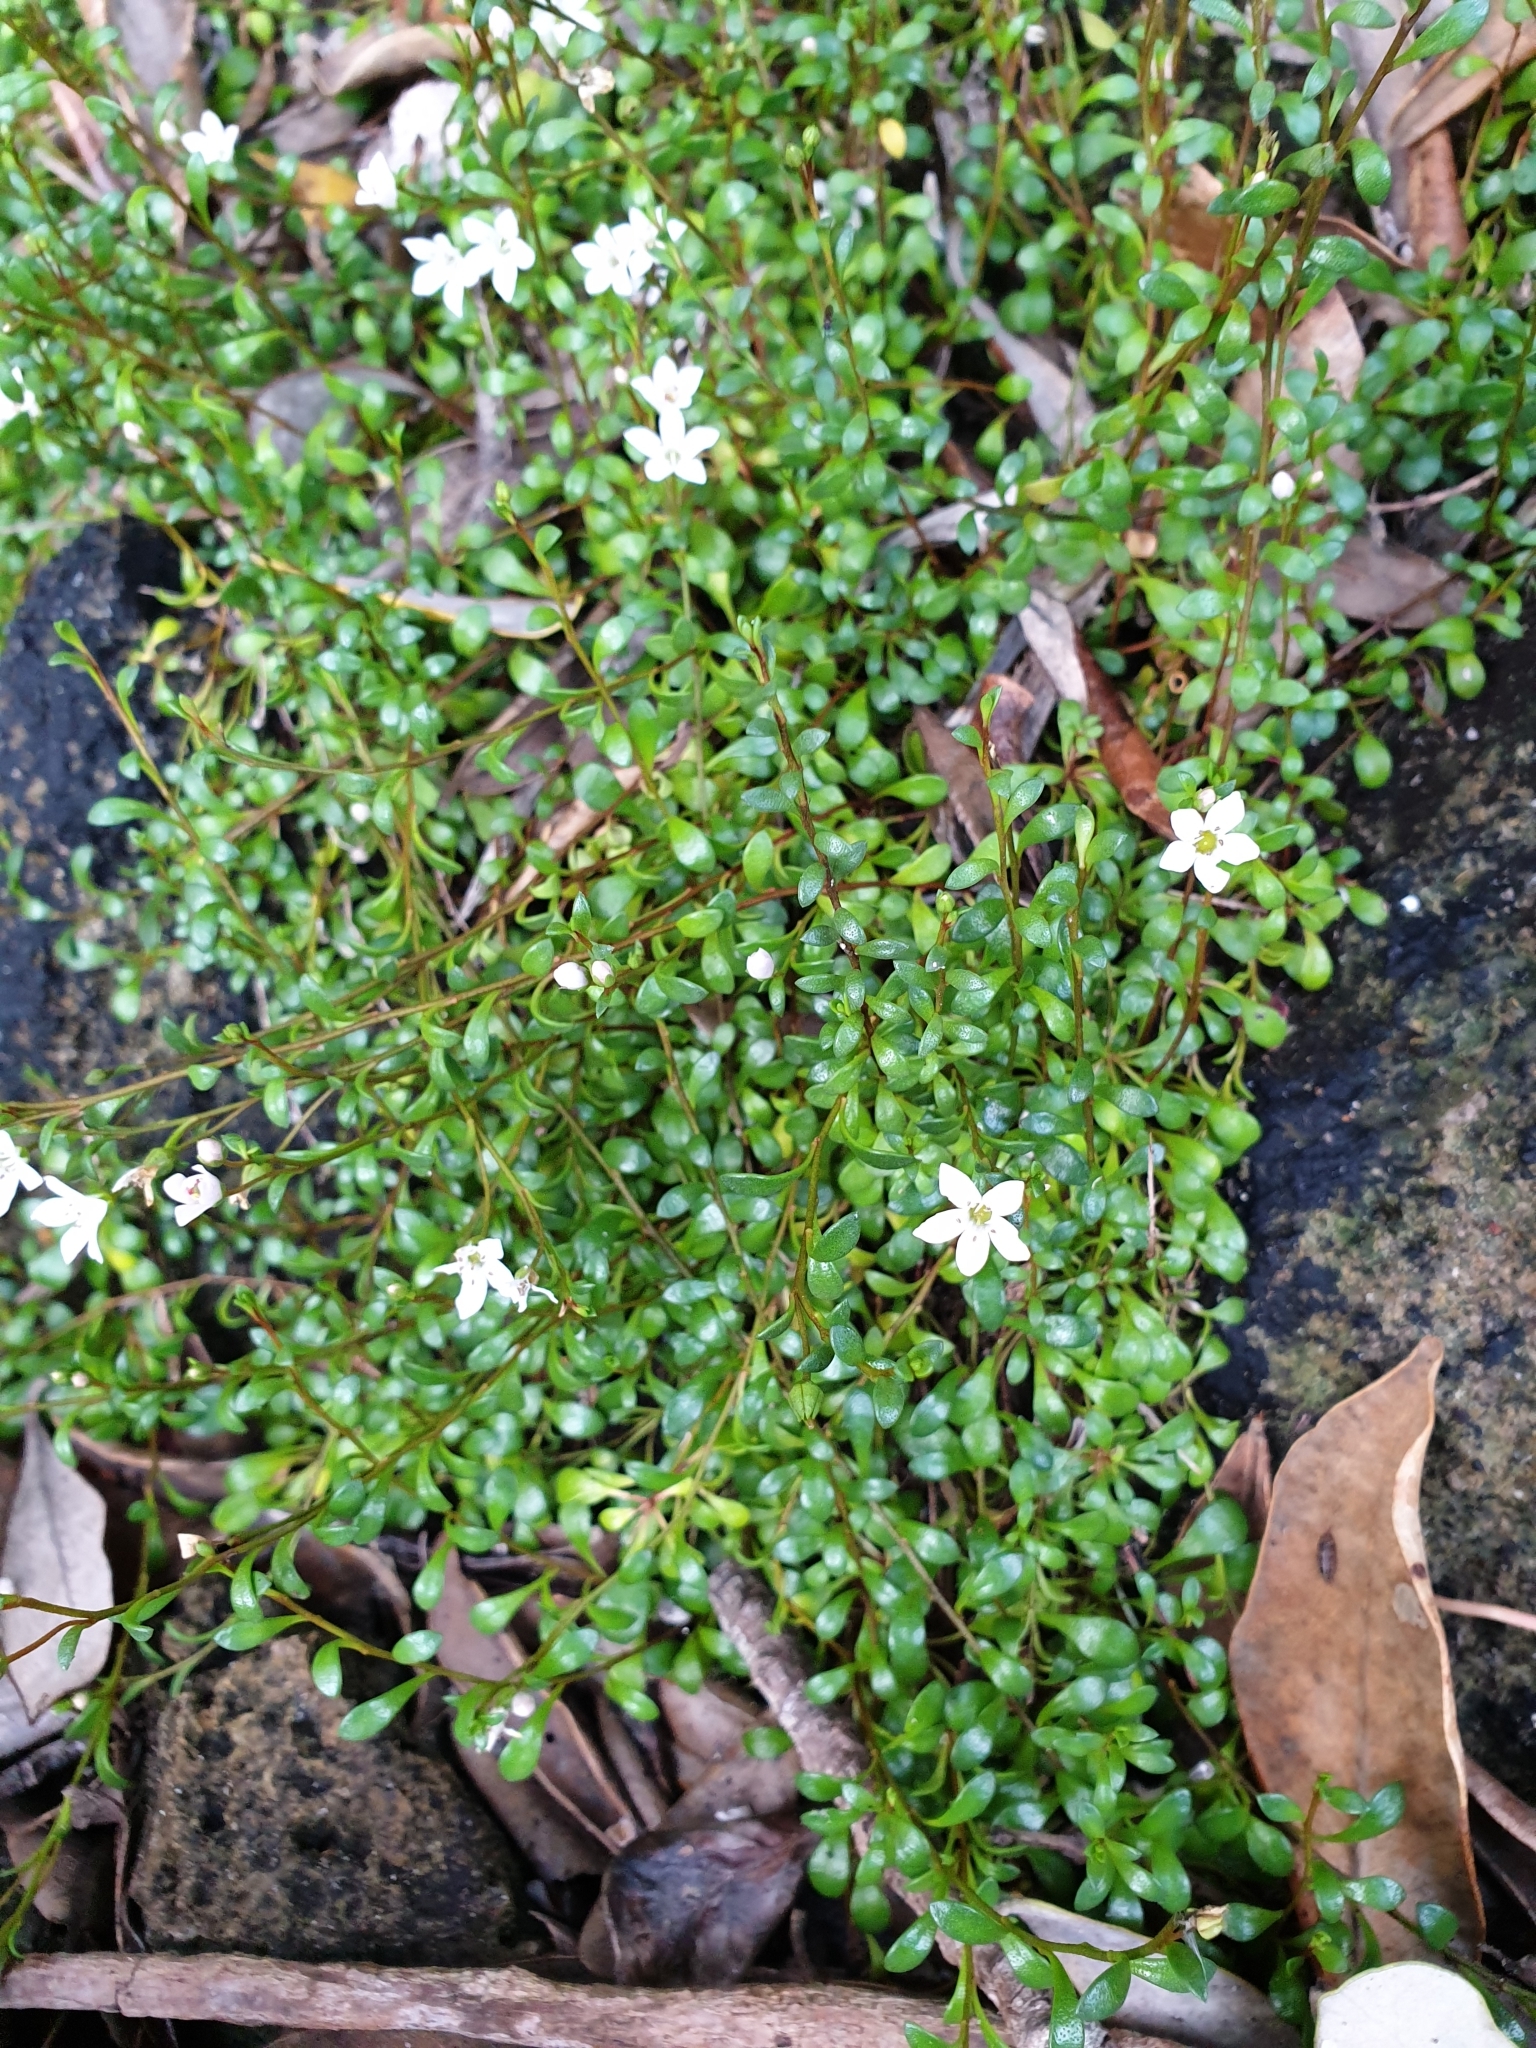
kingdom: Plantae
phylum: Tracheophyta
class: Magnoliopsida
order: Ericales
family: Primulaceae
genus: Samolus
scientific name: Samolus repens
